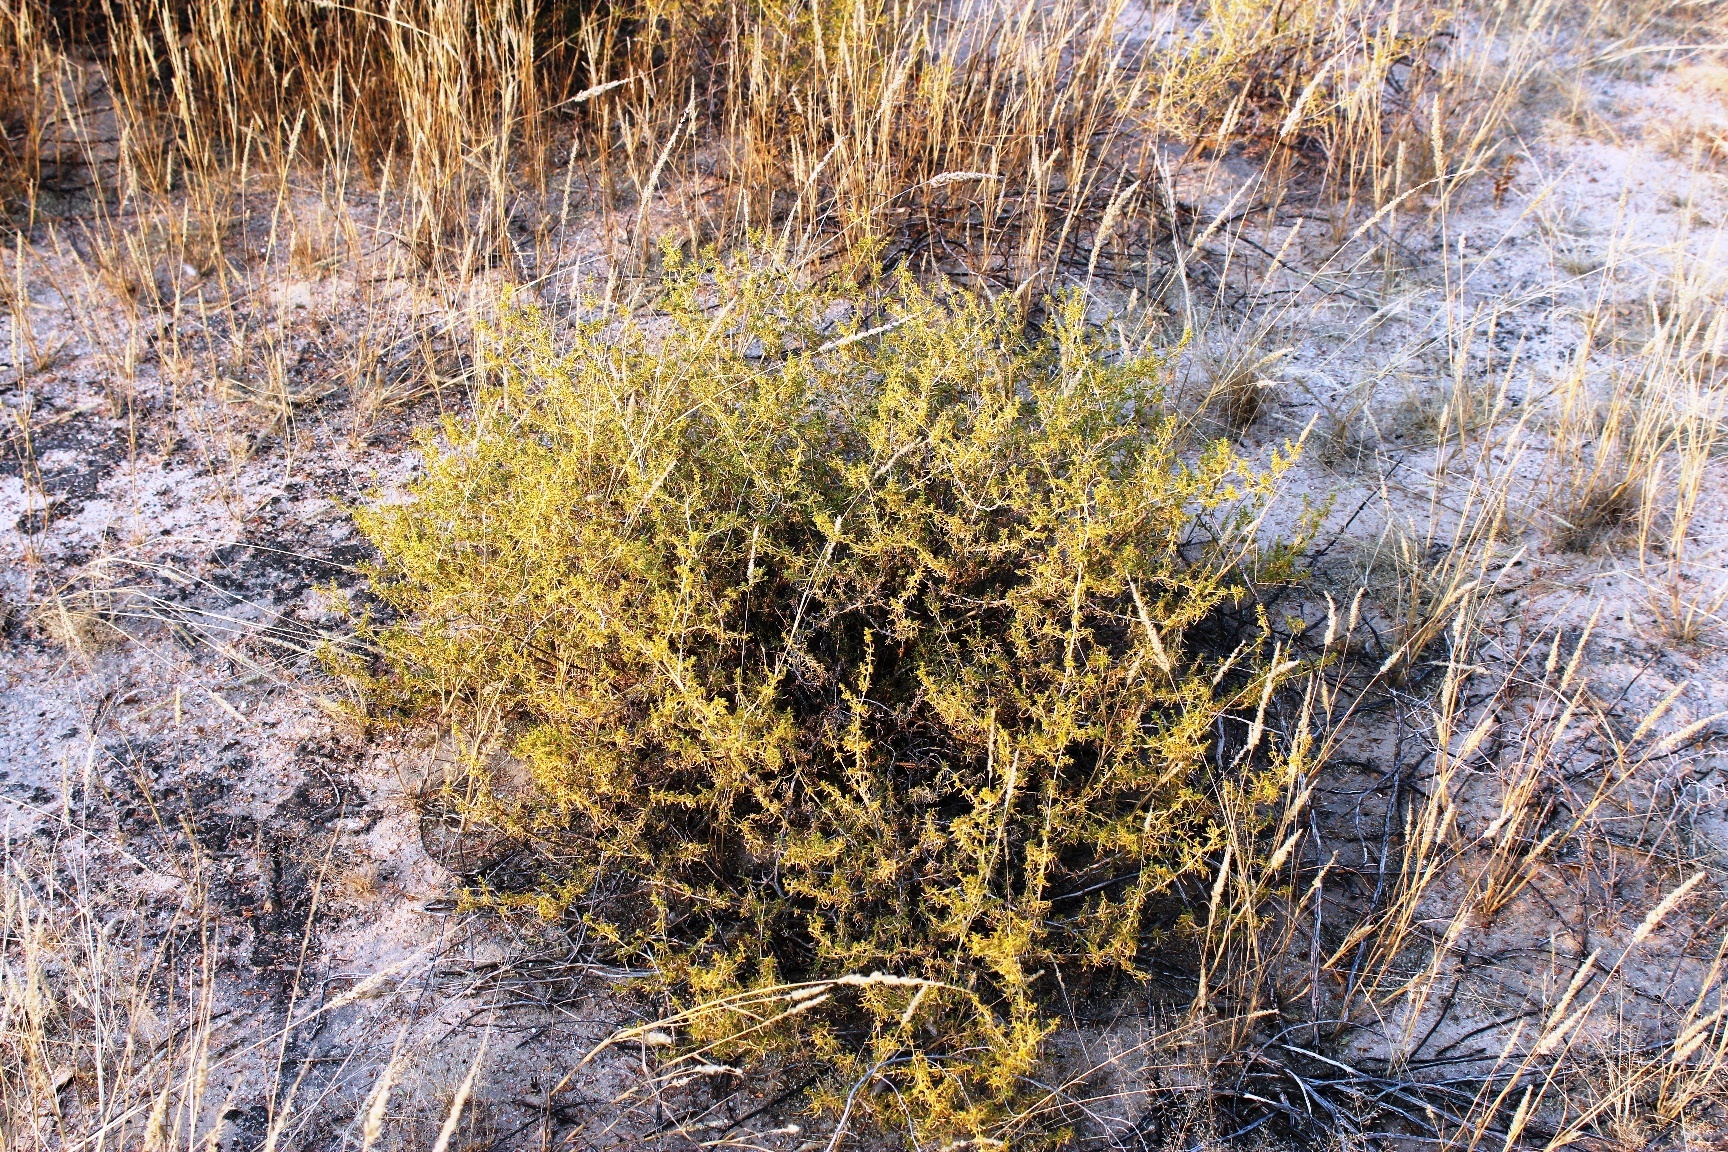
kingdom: Plantae
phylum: Tracheophyta
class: Magnoliopsida
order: Caryophyllales
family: Aizoaceae
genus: Aizoon
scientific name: Aizoon africanum
